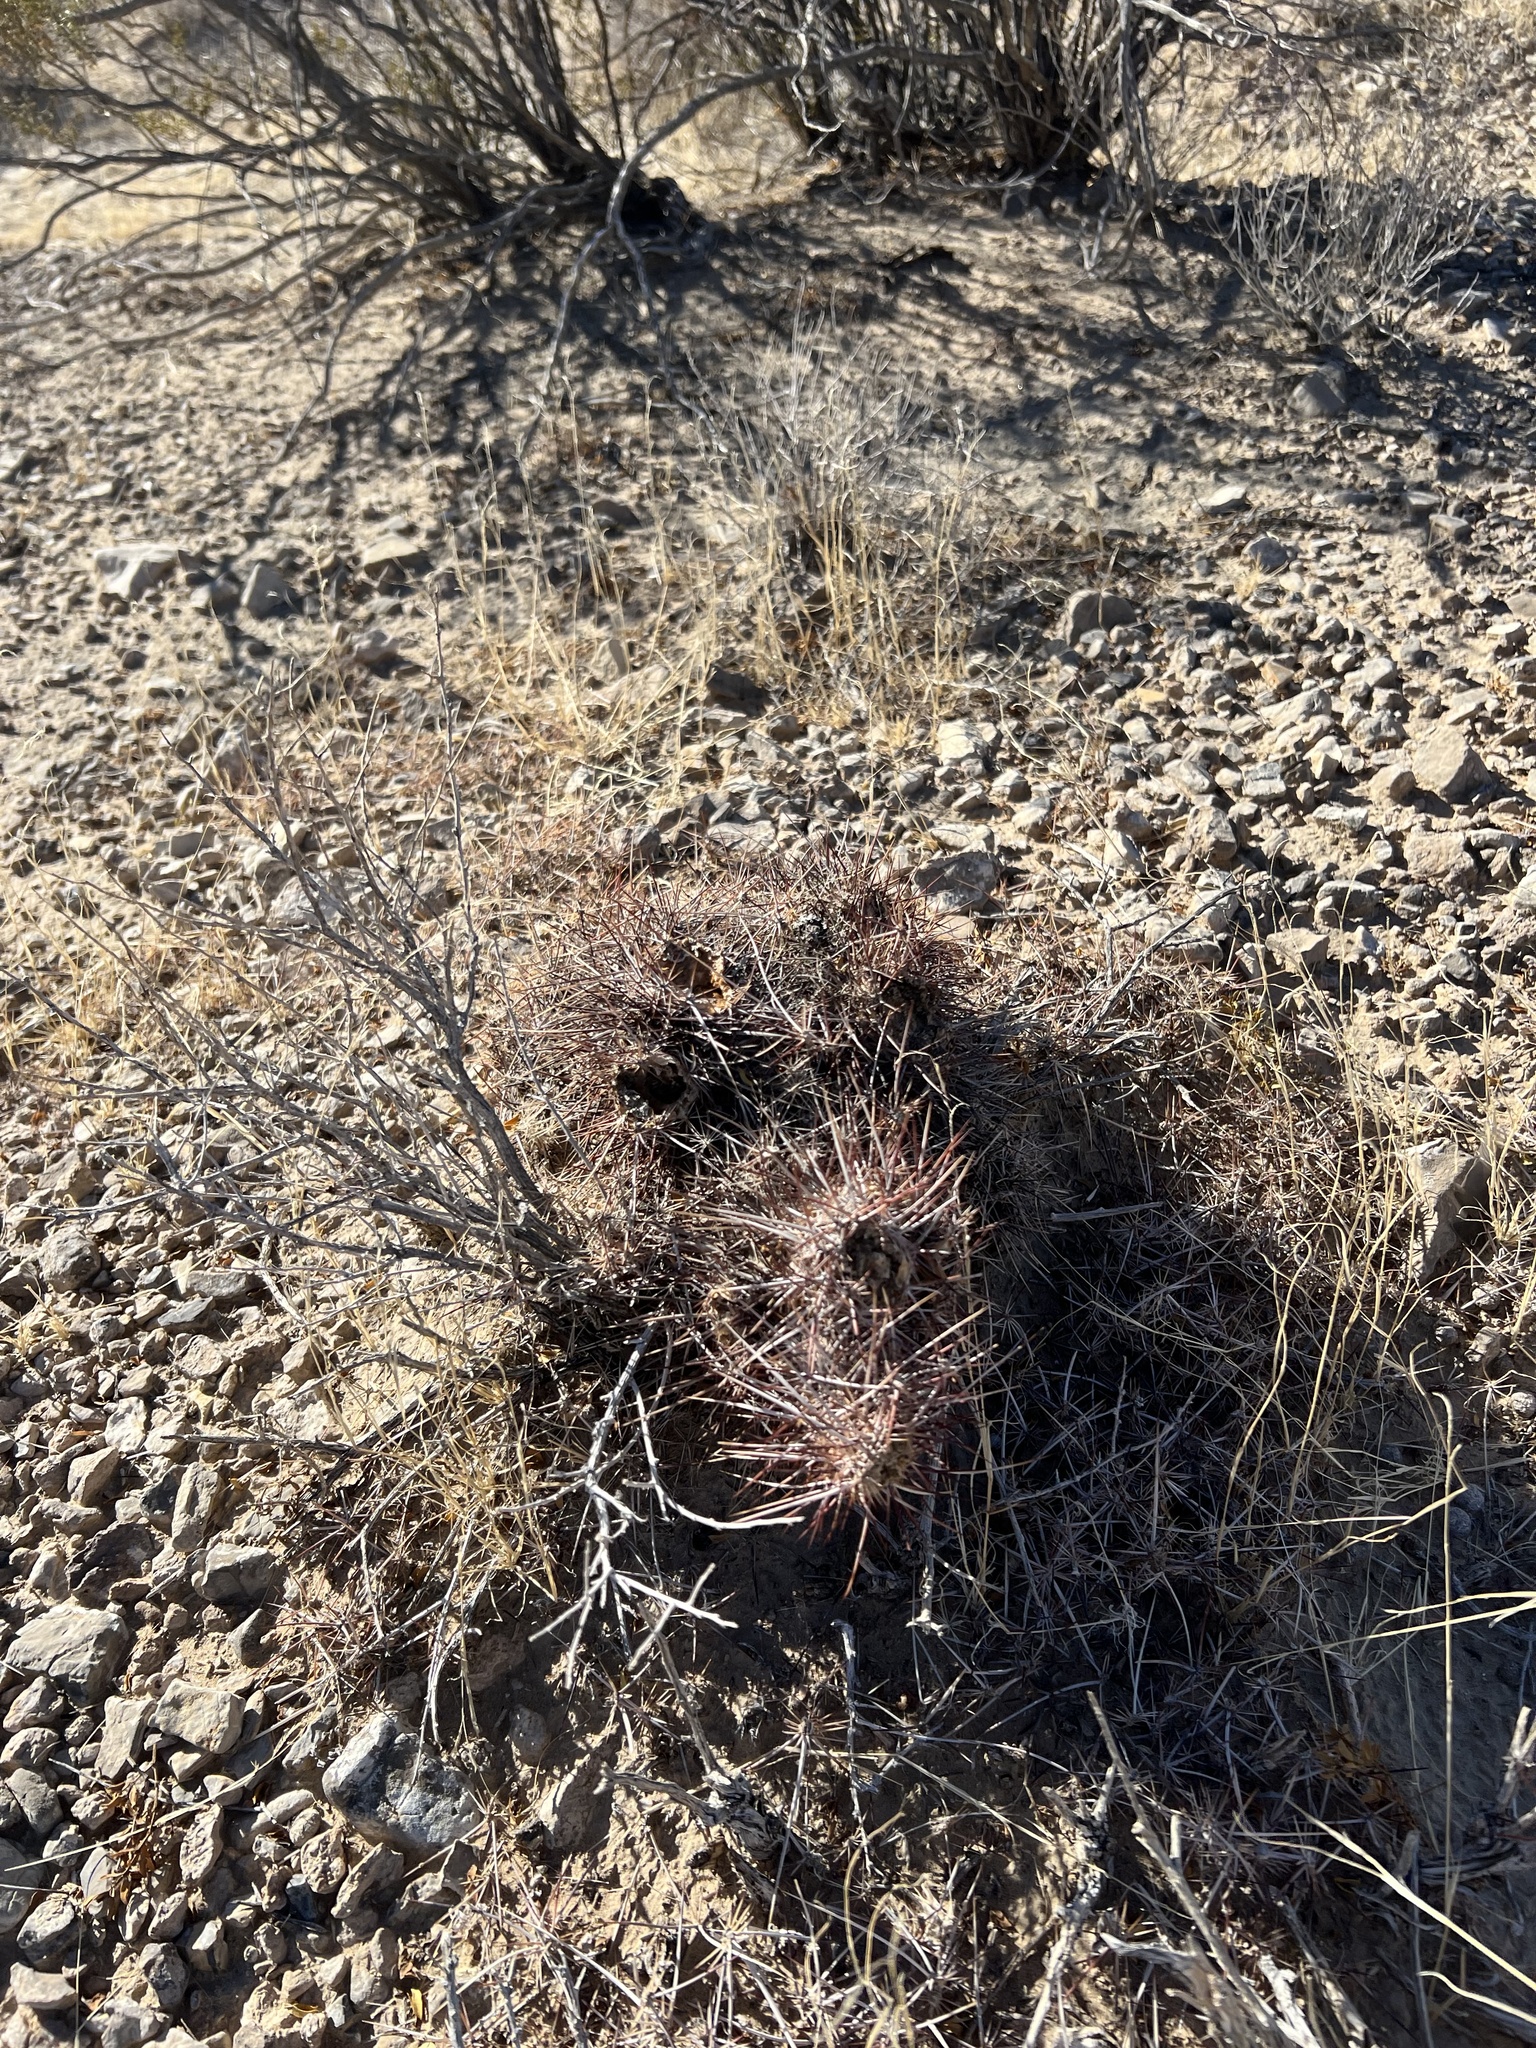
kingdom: Plantae
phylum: Tracheophyta
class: Magnoliopsida
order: Caryophyllales
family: Cactaceae
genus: Echinocereus
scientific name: Echinocereus engelmannii
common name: Engelmann's hedgehog cactus
